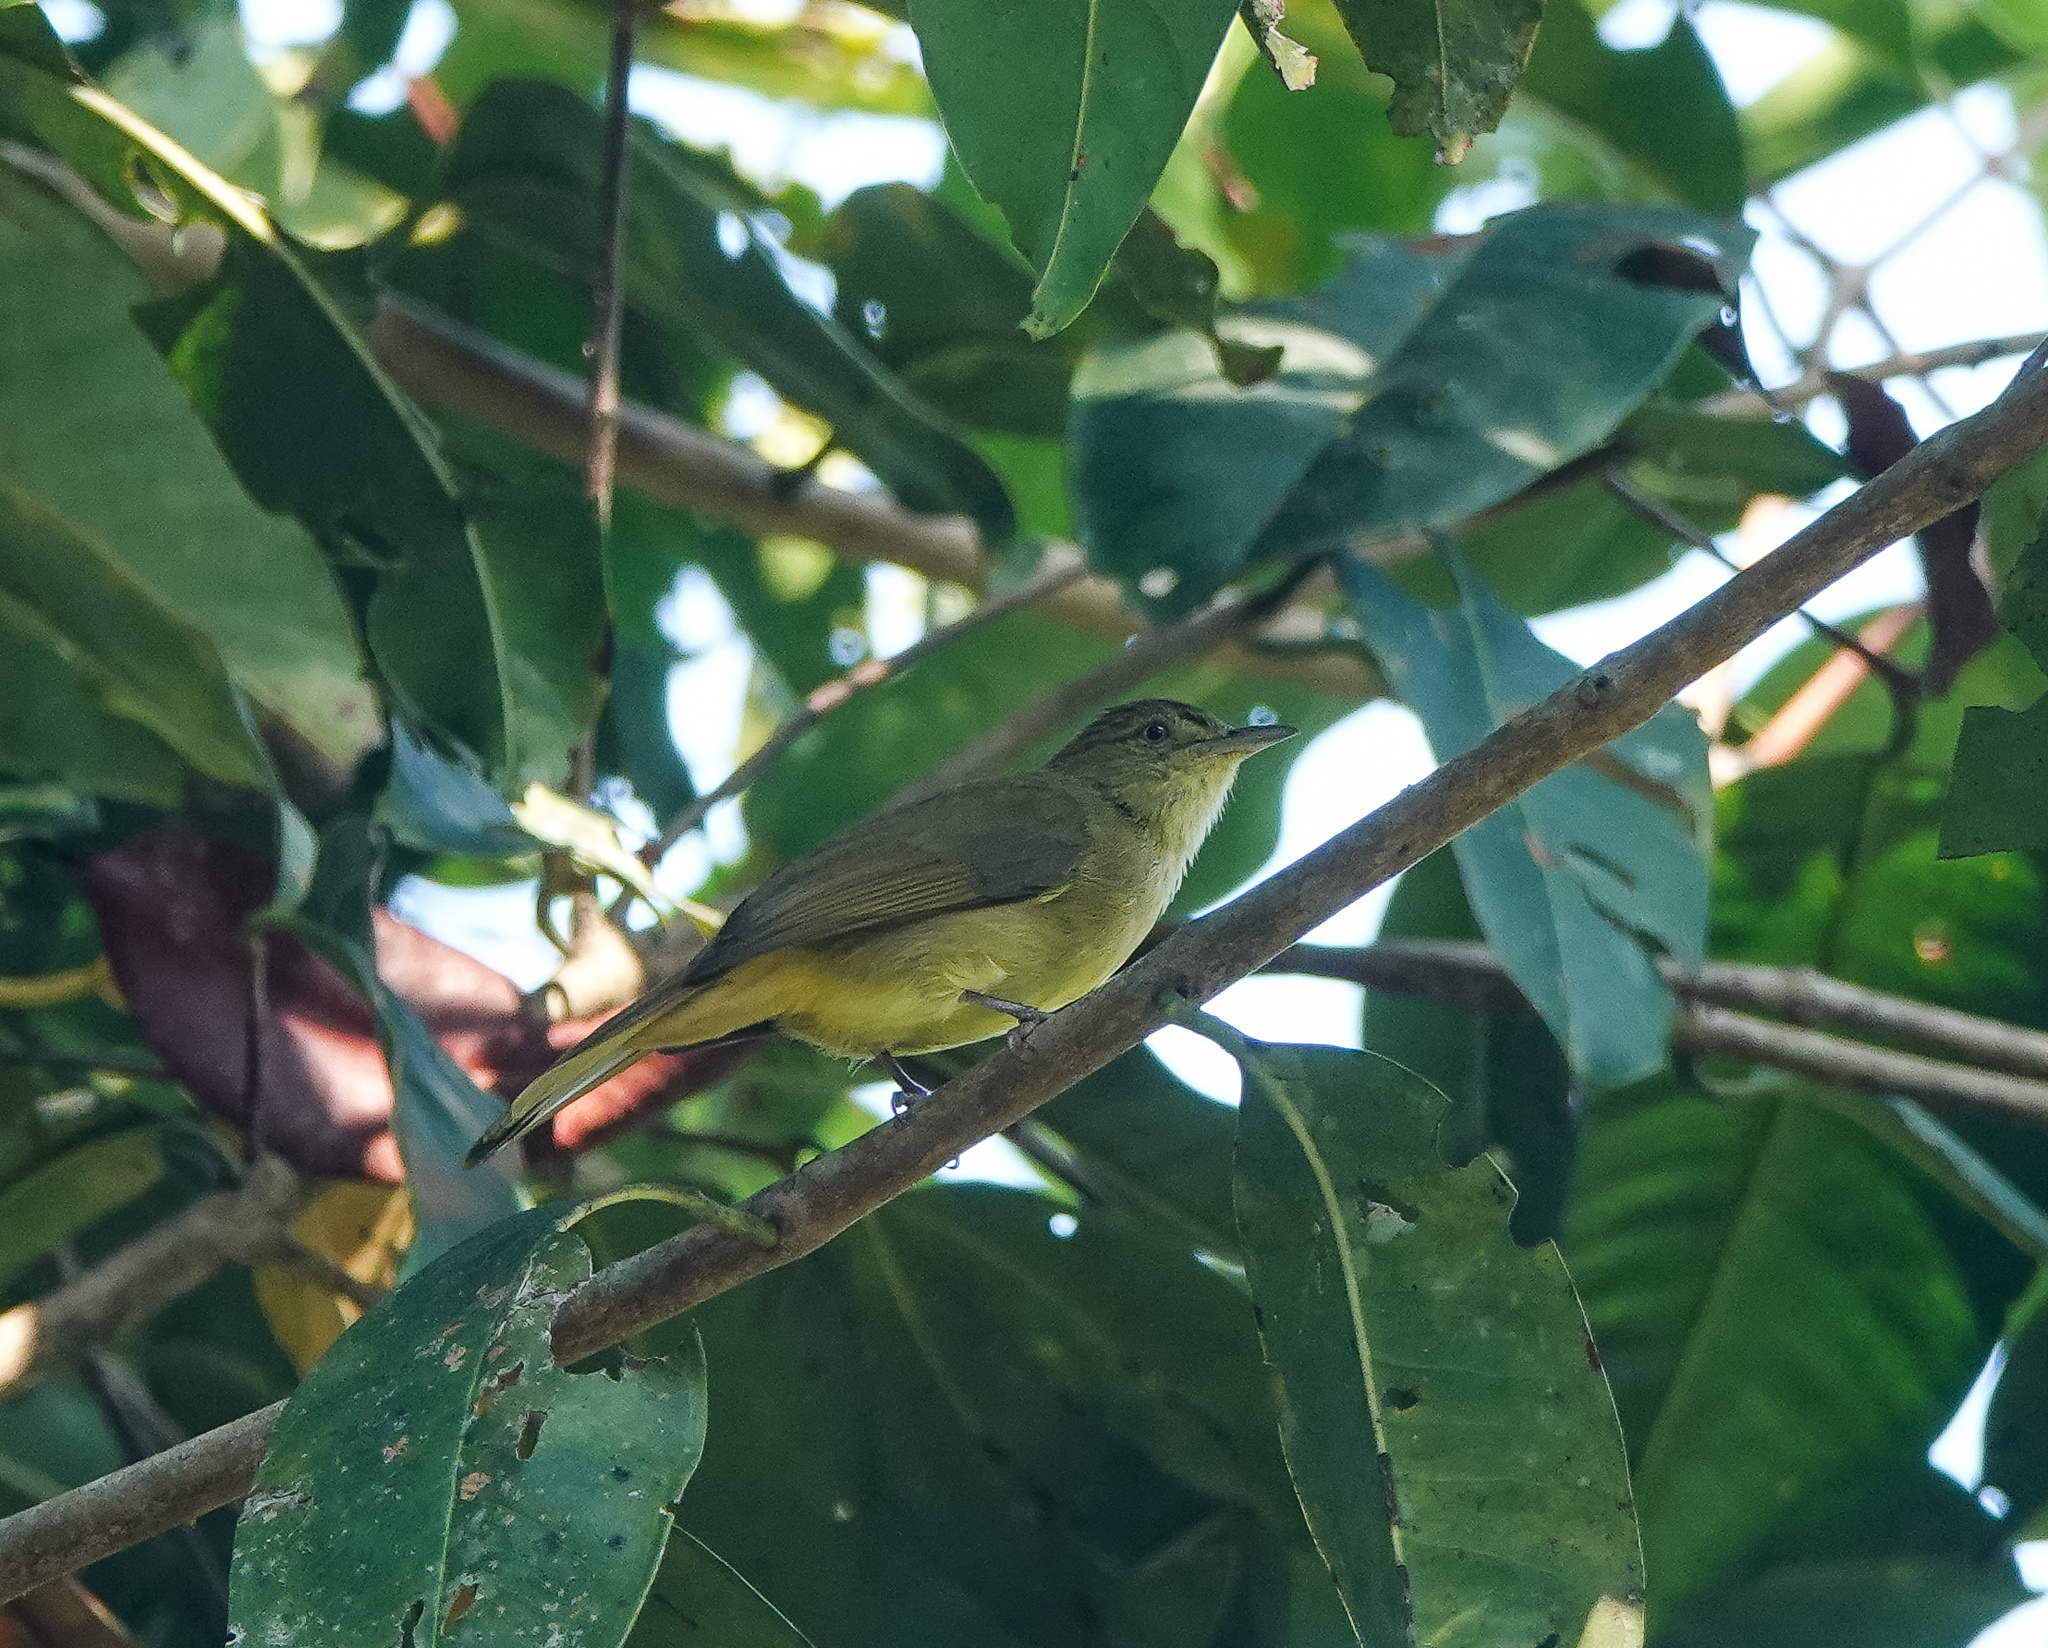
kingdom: Animalia
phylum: Chordata
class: Aves
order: Passeriformes
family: Pycnonotidae
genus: Iole
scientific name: Iole virescens
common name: Olive bulbul
